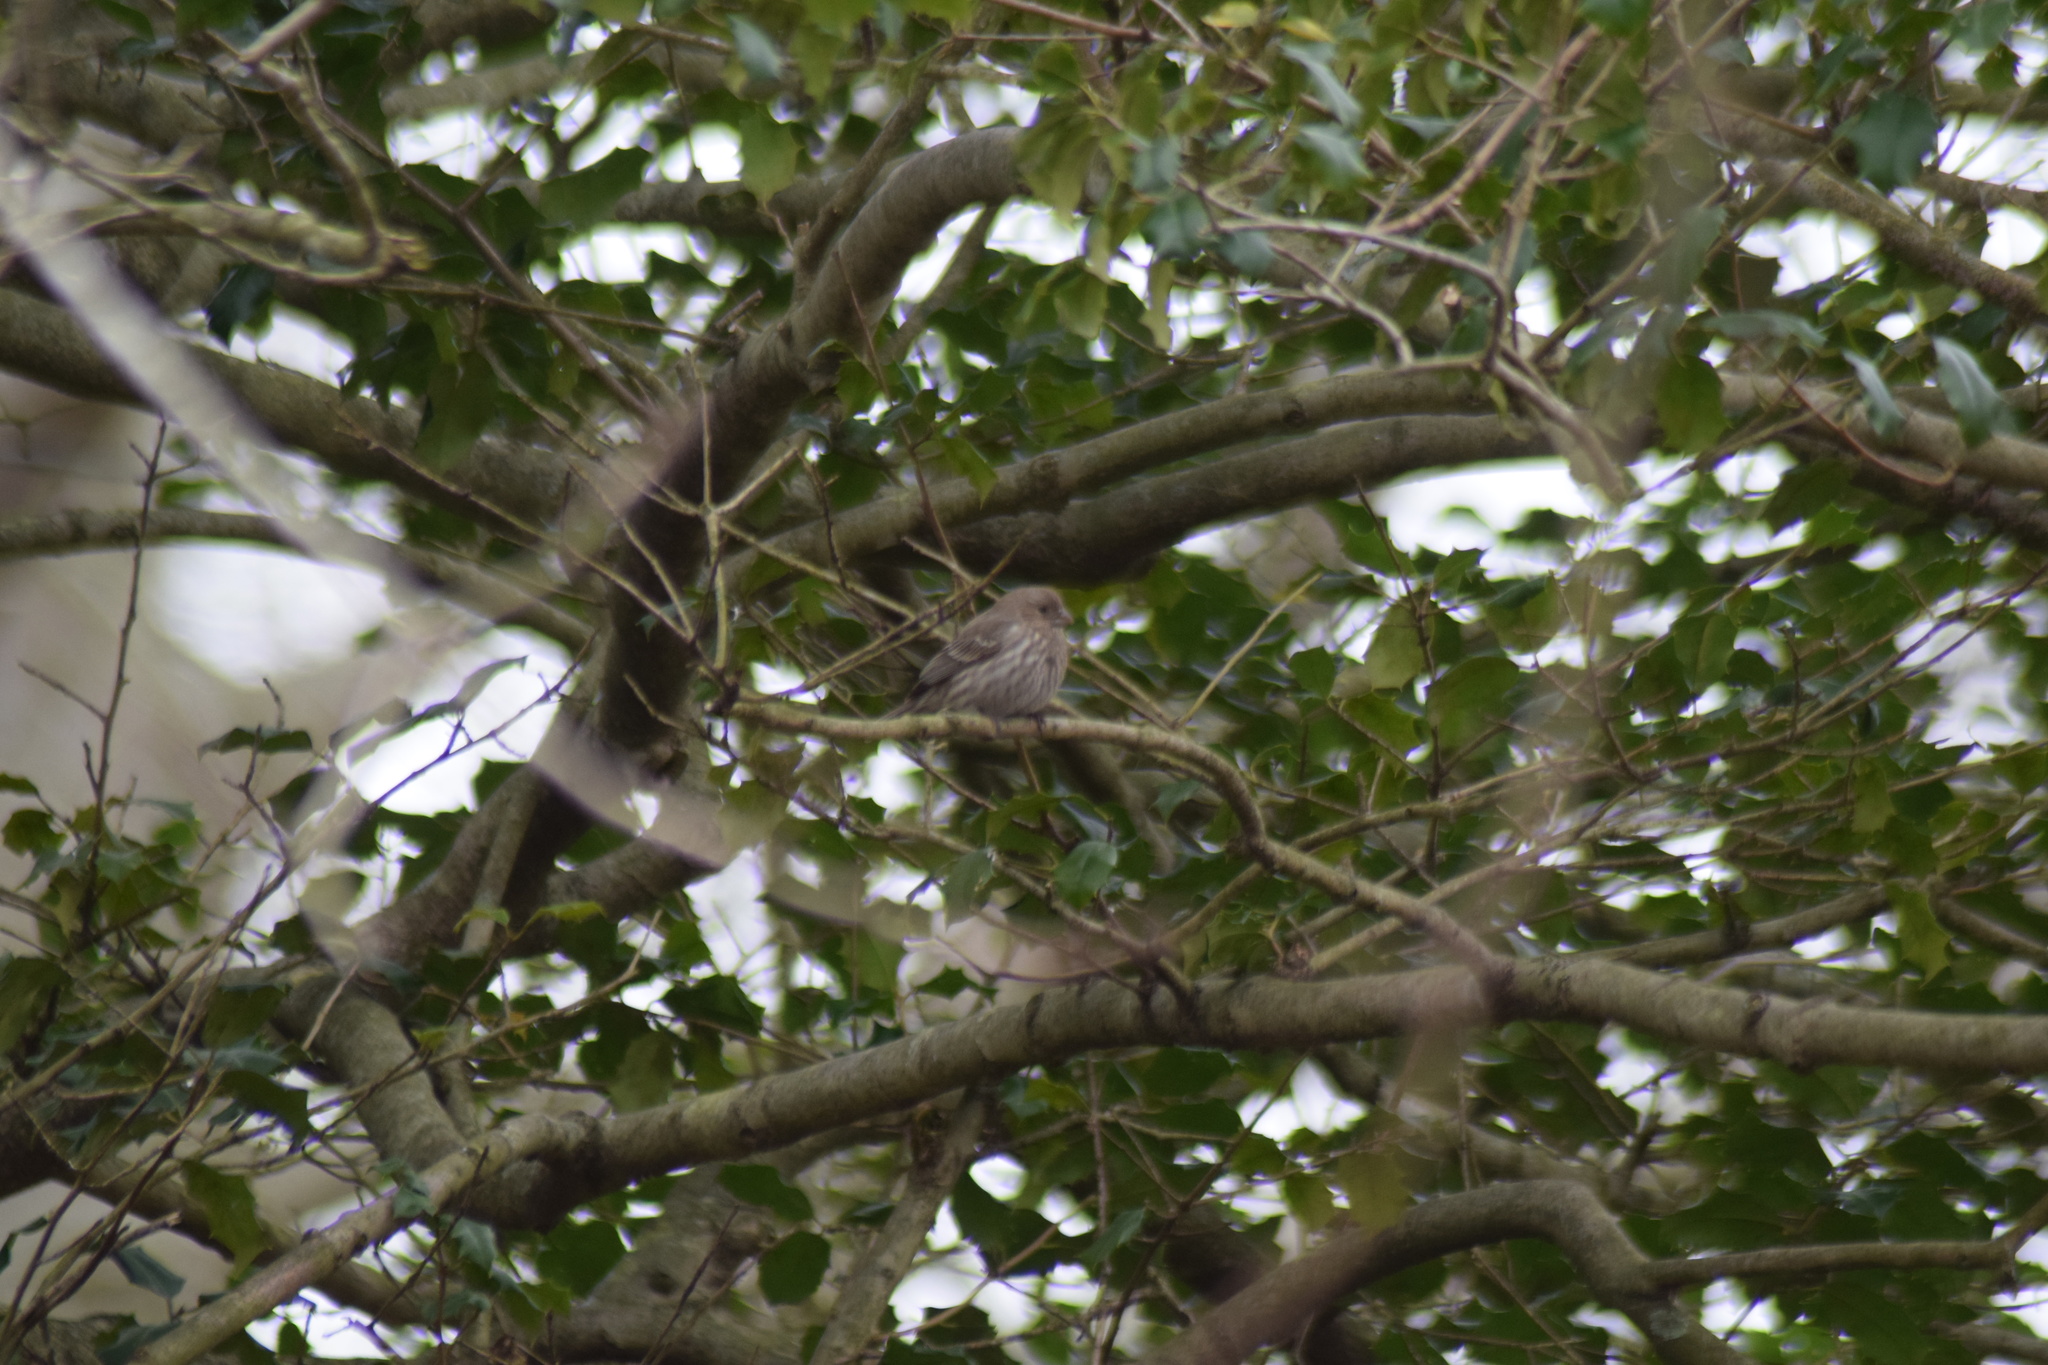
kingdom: Animalia
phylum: Chordata
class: Aves
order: Passeriformes
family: Fringillidae
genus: Haemorhous
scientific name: Haemorhous mexicanus
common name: House finch
